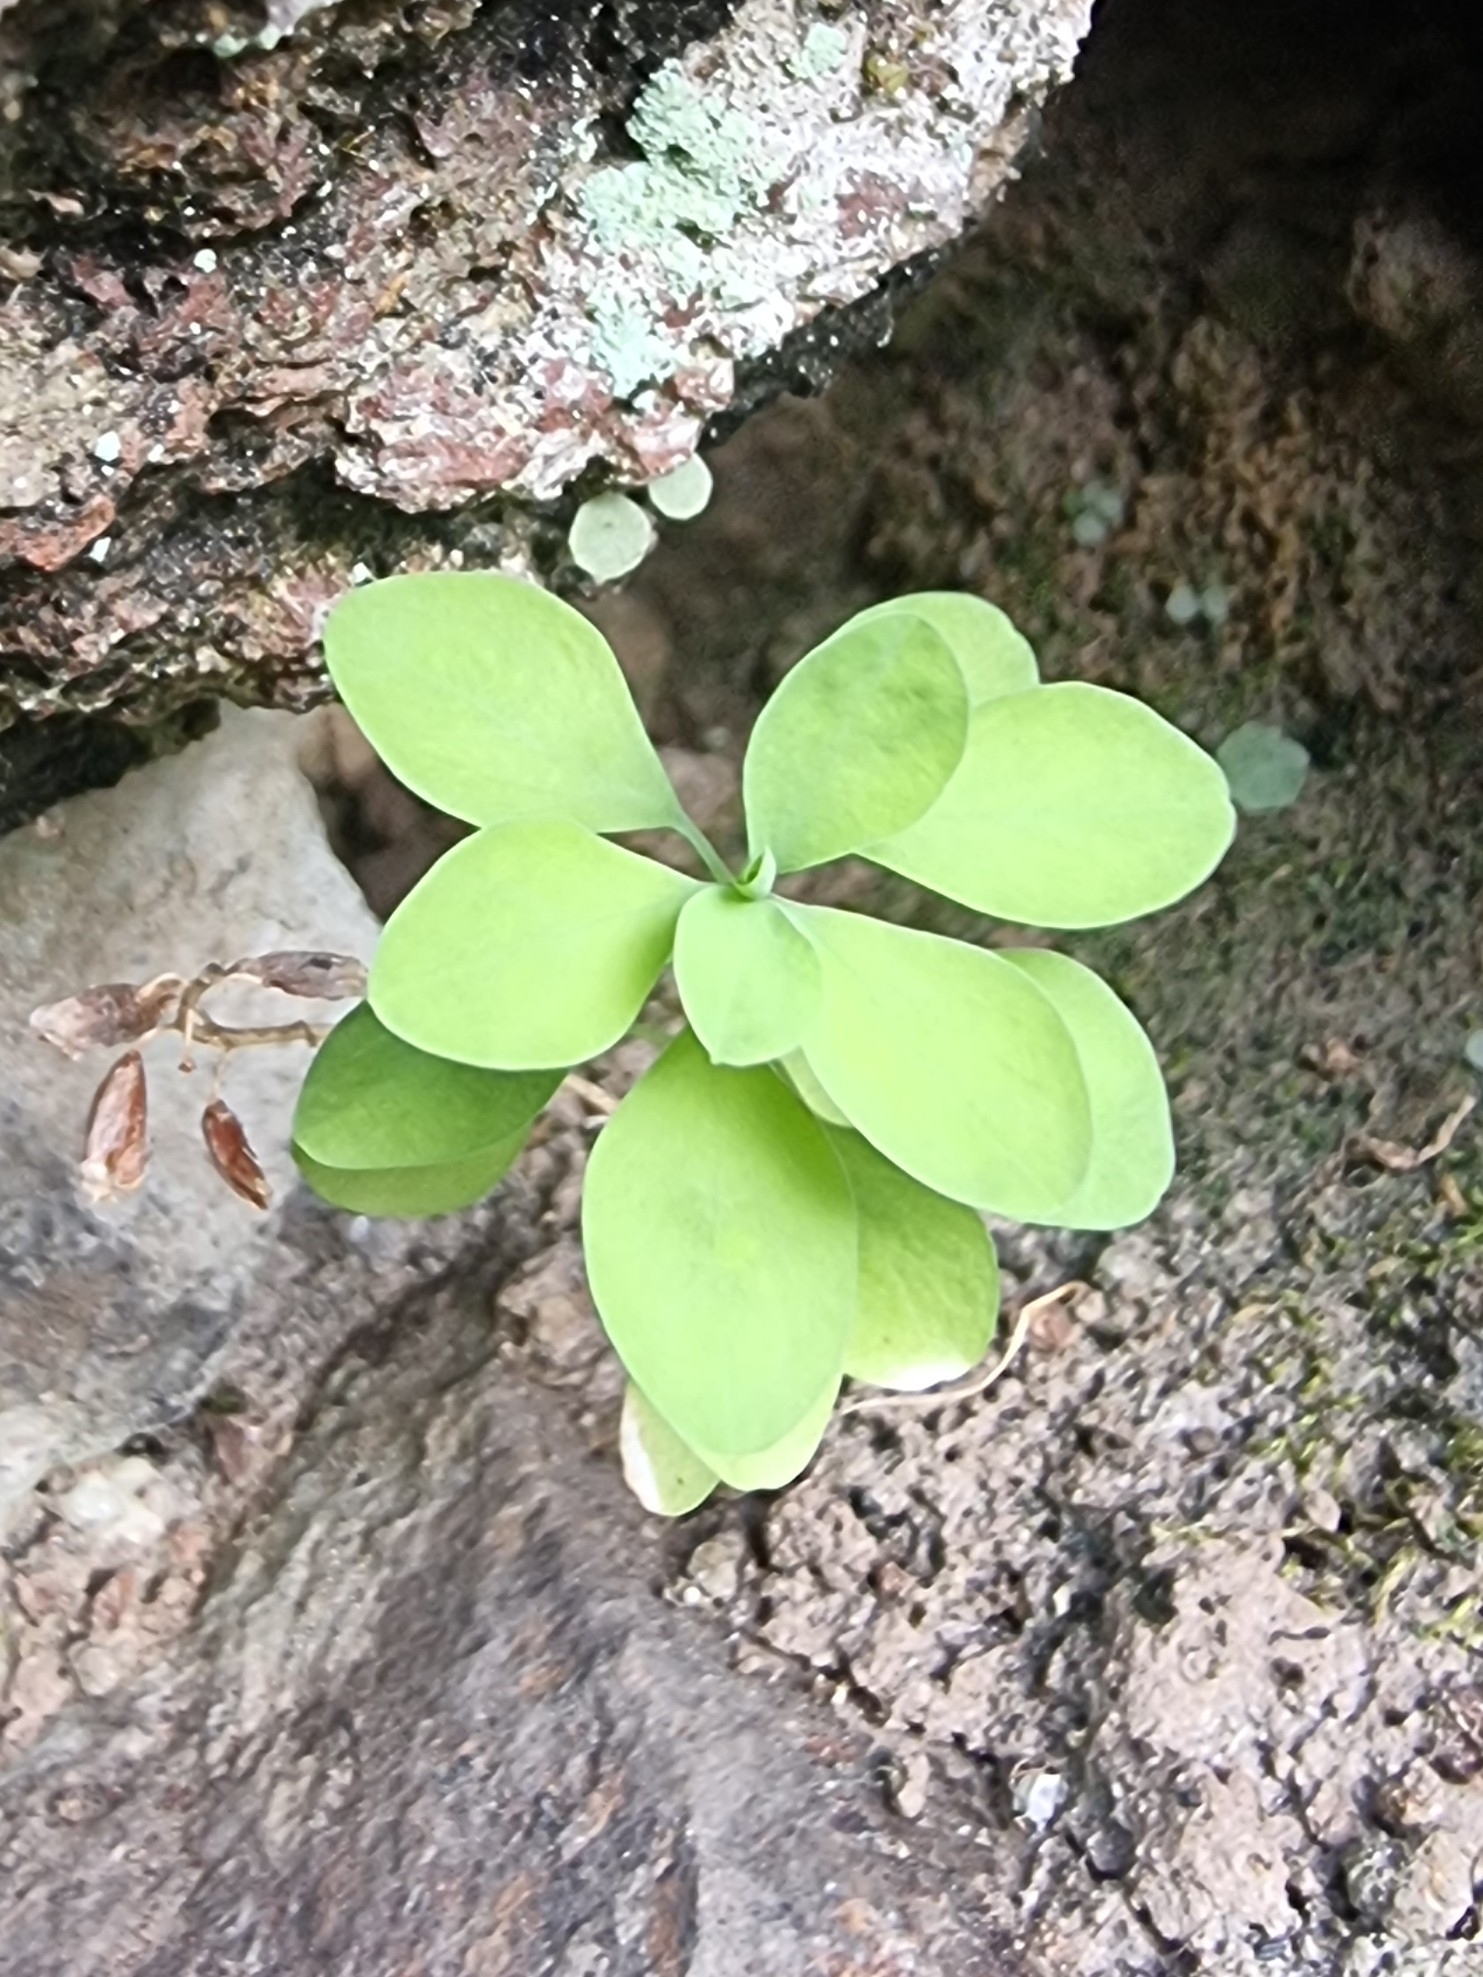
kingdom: Plantae
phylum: Tracheophyta
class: Magnoliopsida
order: Malpighiales
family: Euphorbiaceae
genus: Euphorbia
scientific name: Euphorbia peplus
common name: Petty spurge
